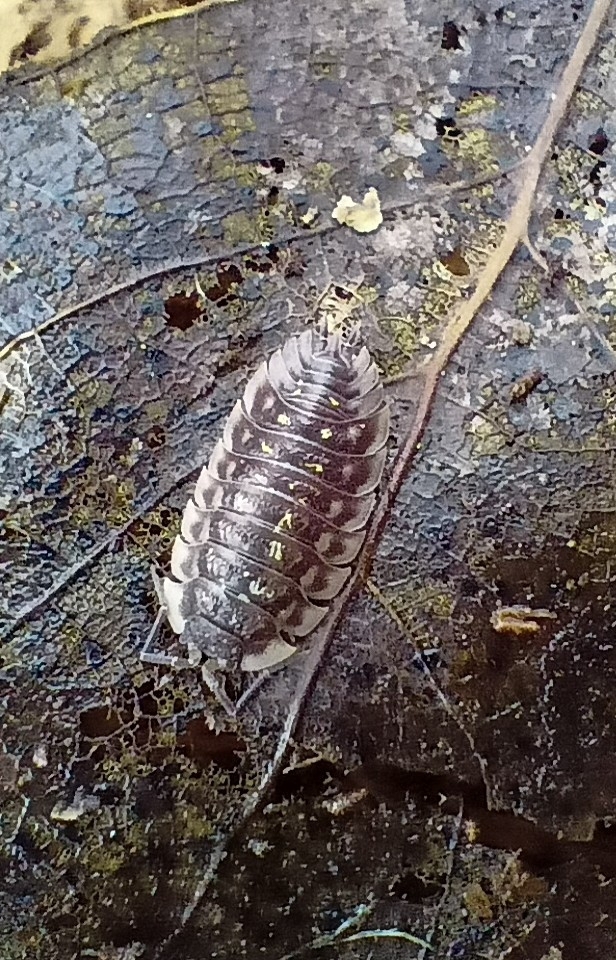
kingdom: Animalia
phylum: Arthropoda
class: Malacostraca
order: Isopoda
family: Oniscidae
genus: Oniscus
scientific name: Oniscus asellus
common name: Common shiny woodlouse
